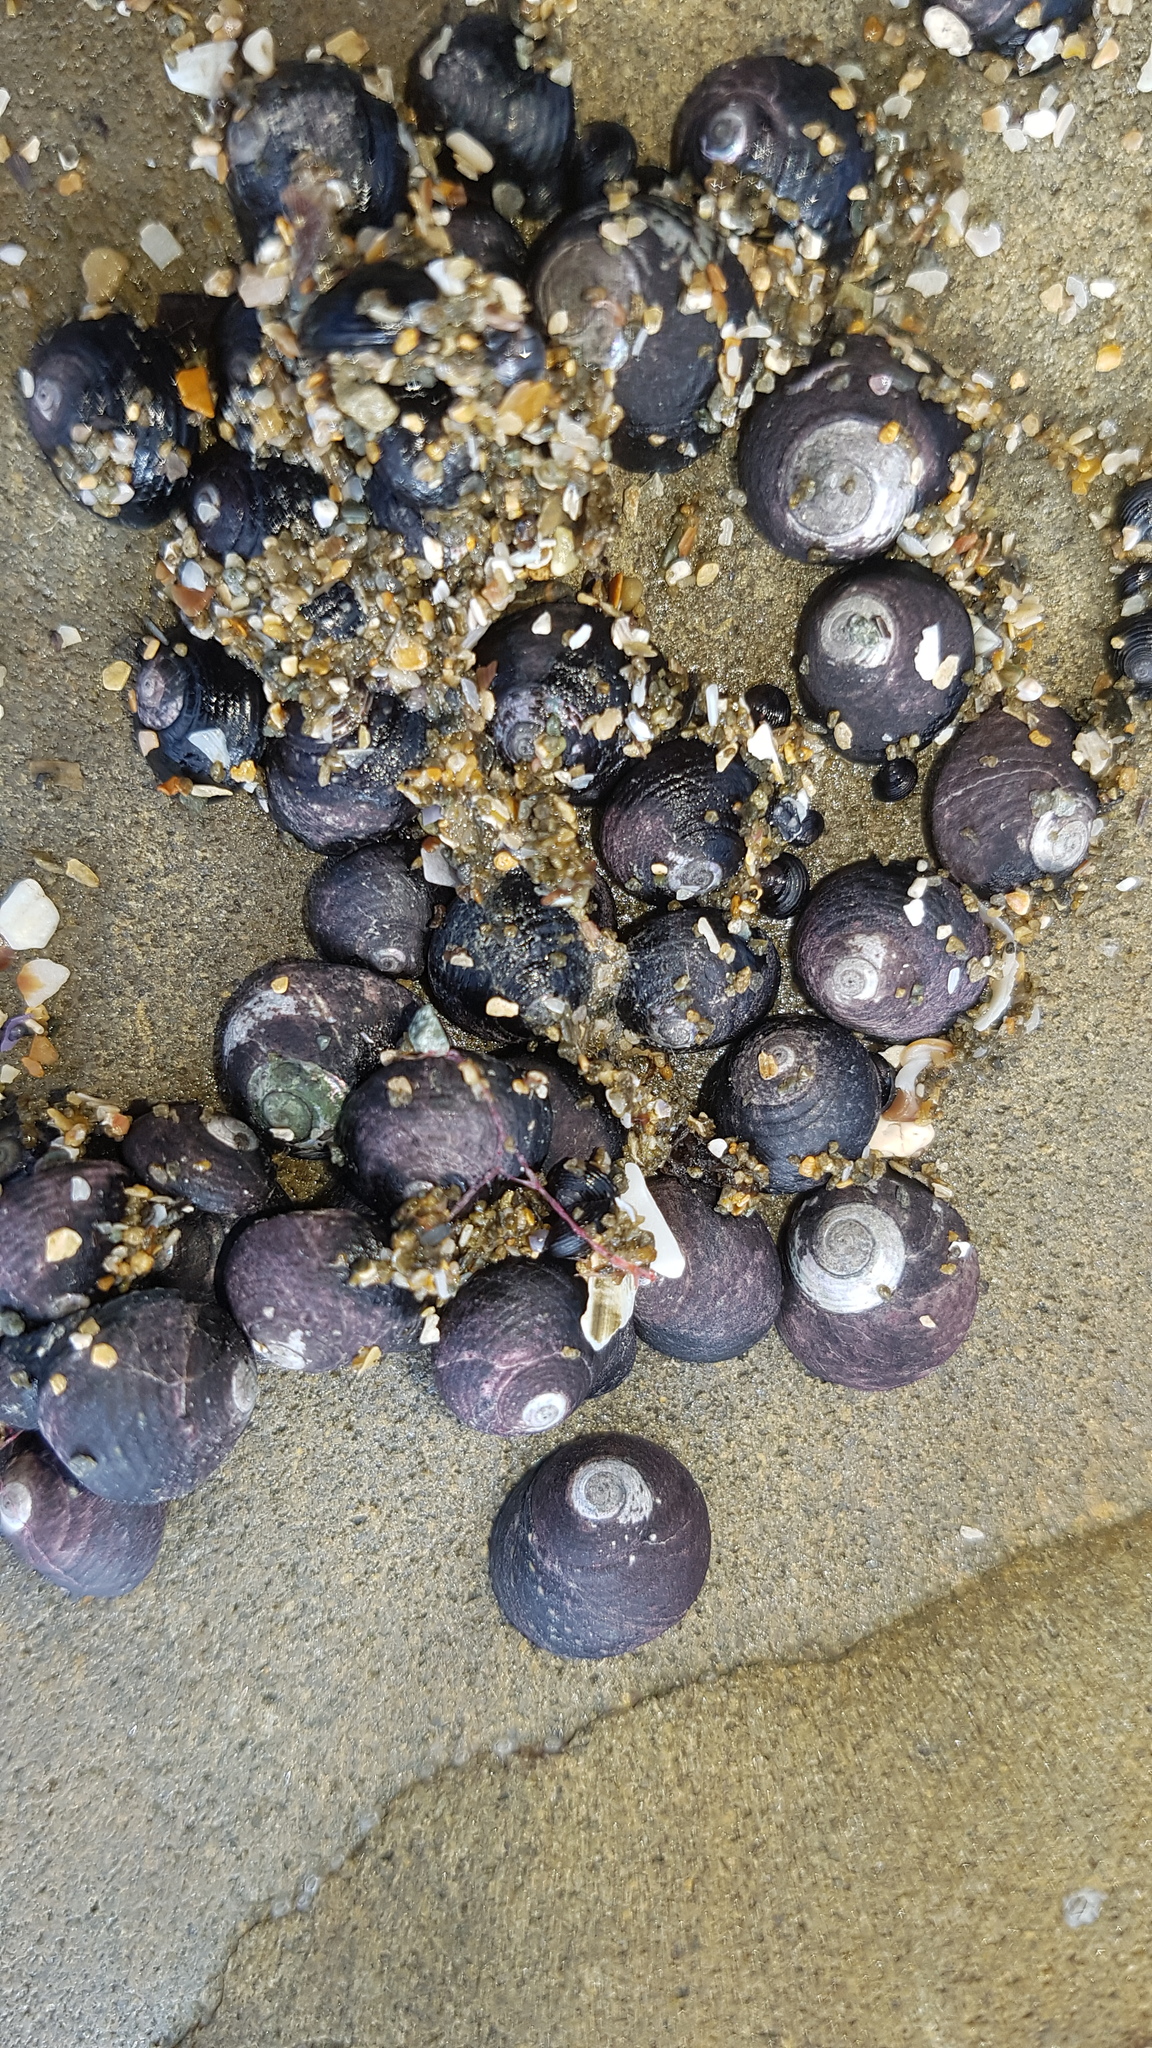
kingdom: Animalia
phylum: Mollusca
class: Gastropoda
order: Trochida
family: Trochidae
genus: Diloma
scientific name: Diloma zelandicum
